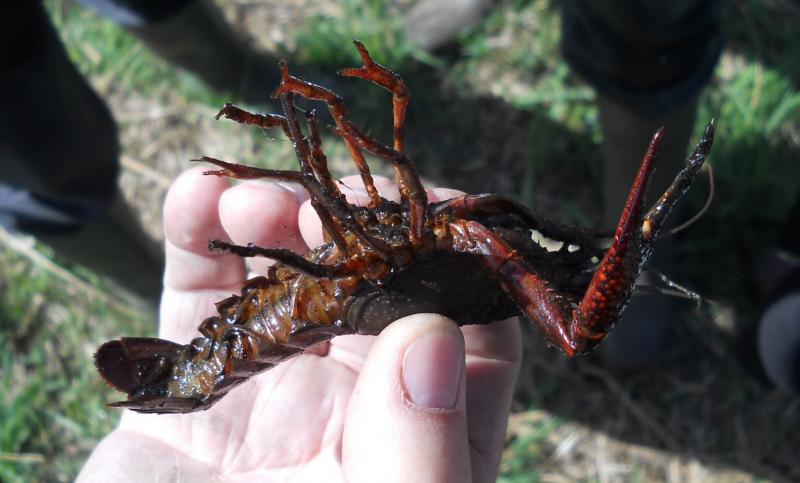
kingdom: Animalia
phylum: Arthropoda
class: Malacostraca
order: Decapoda
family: Cambaridae
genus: Procambarus
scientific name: Procambarus clarkii
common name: Red swamp crayfish
